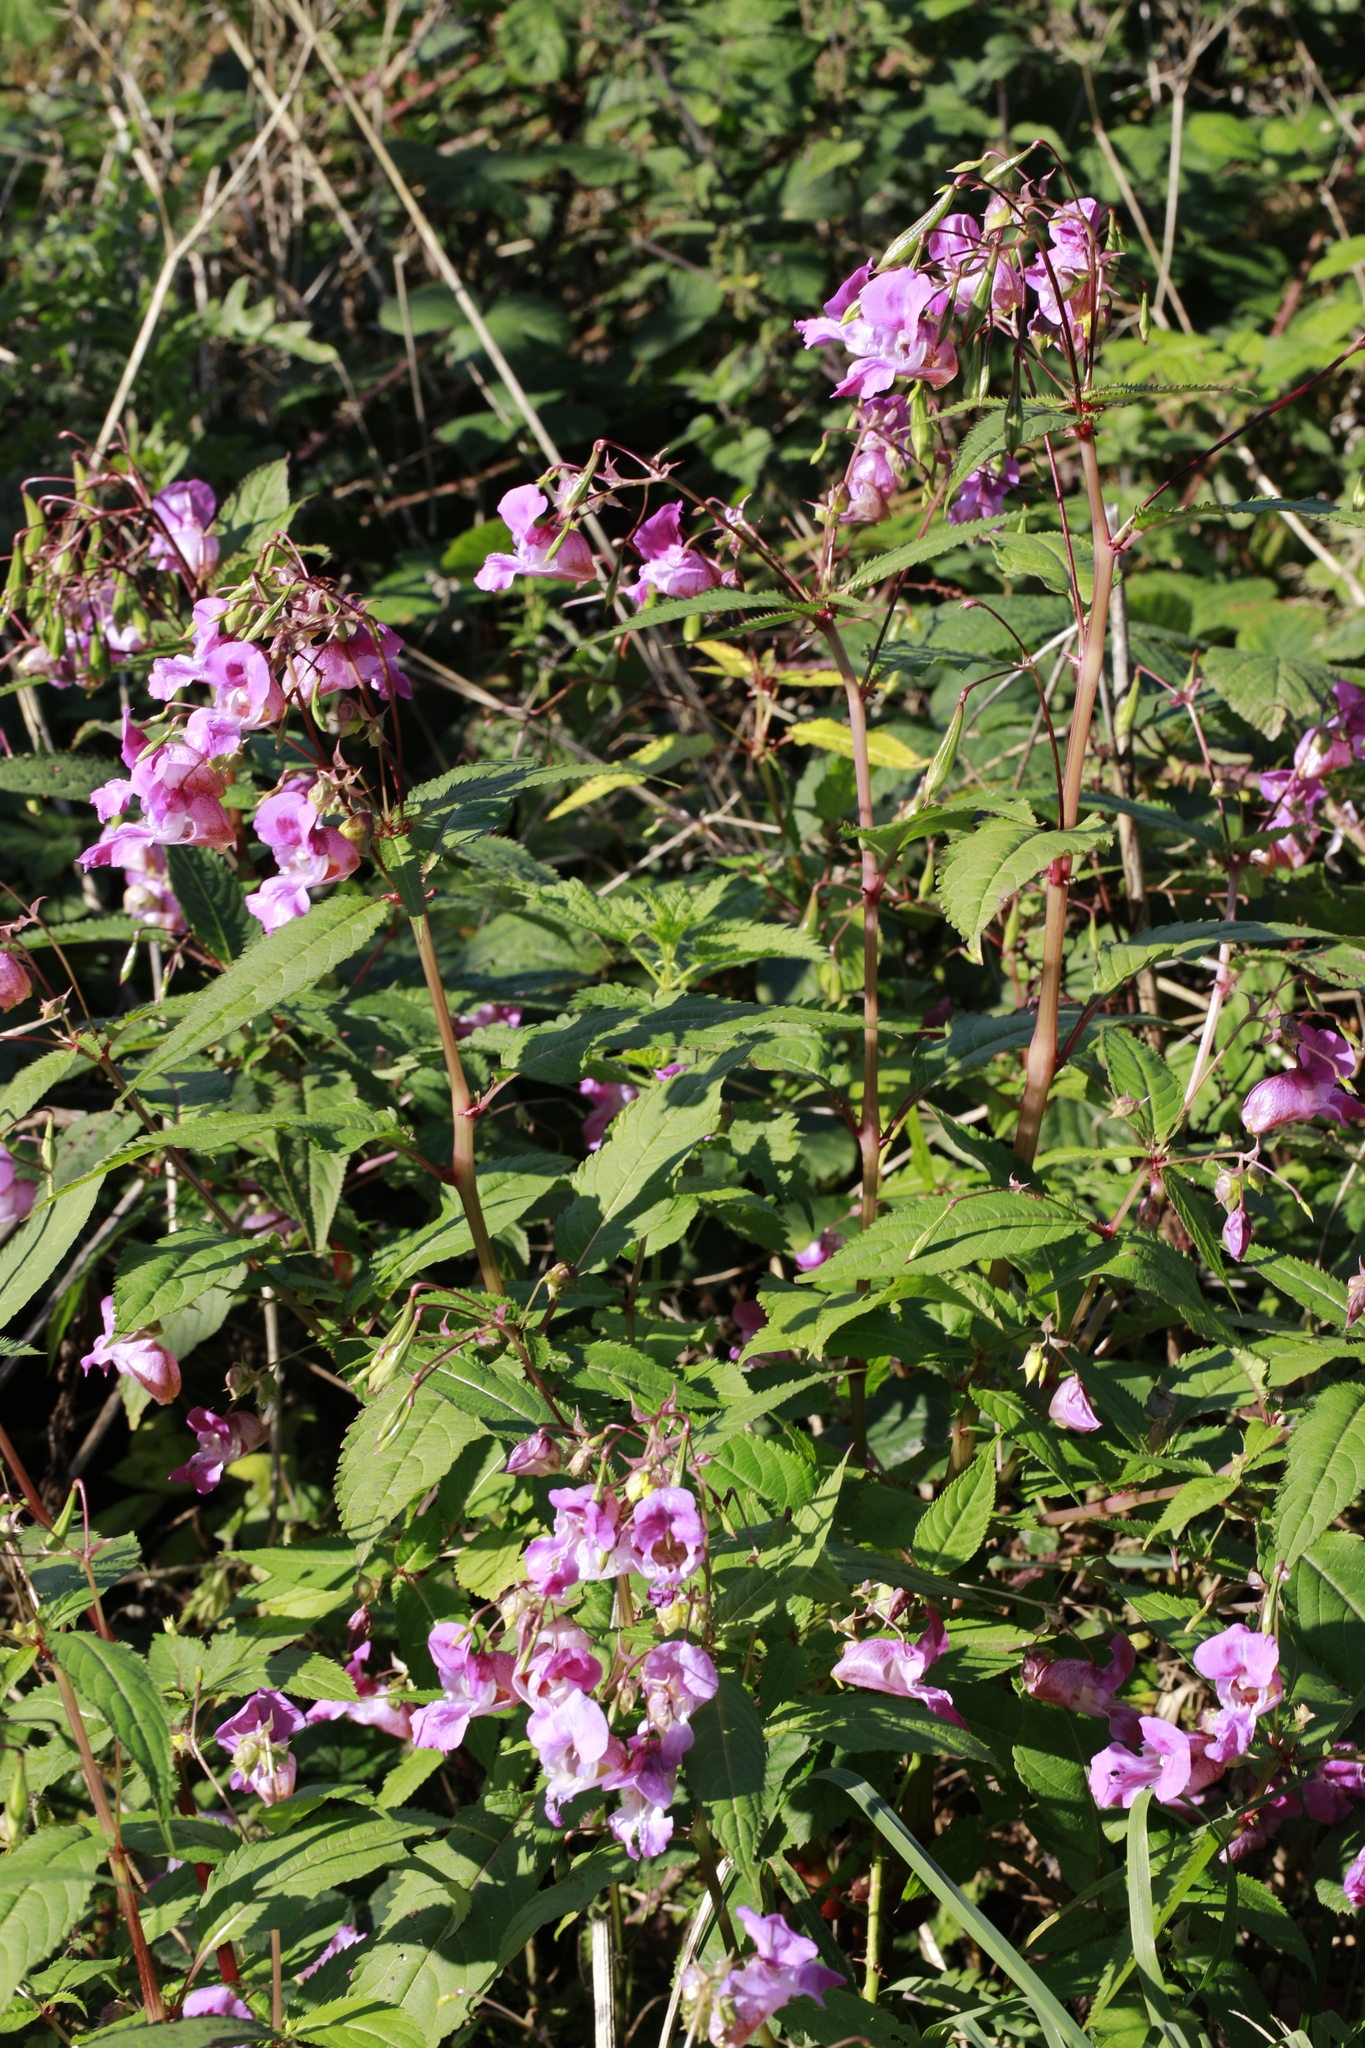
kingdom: Plantae
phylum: Tracheophyta
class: Magnoliopsida
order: Ericales
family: Balsaminaceae
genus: Impatiens
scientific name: Impatiens glandulifera
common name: Himalayan balsam
